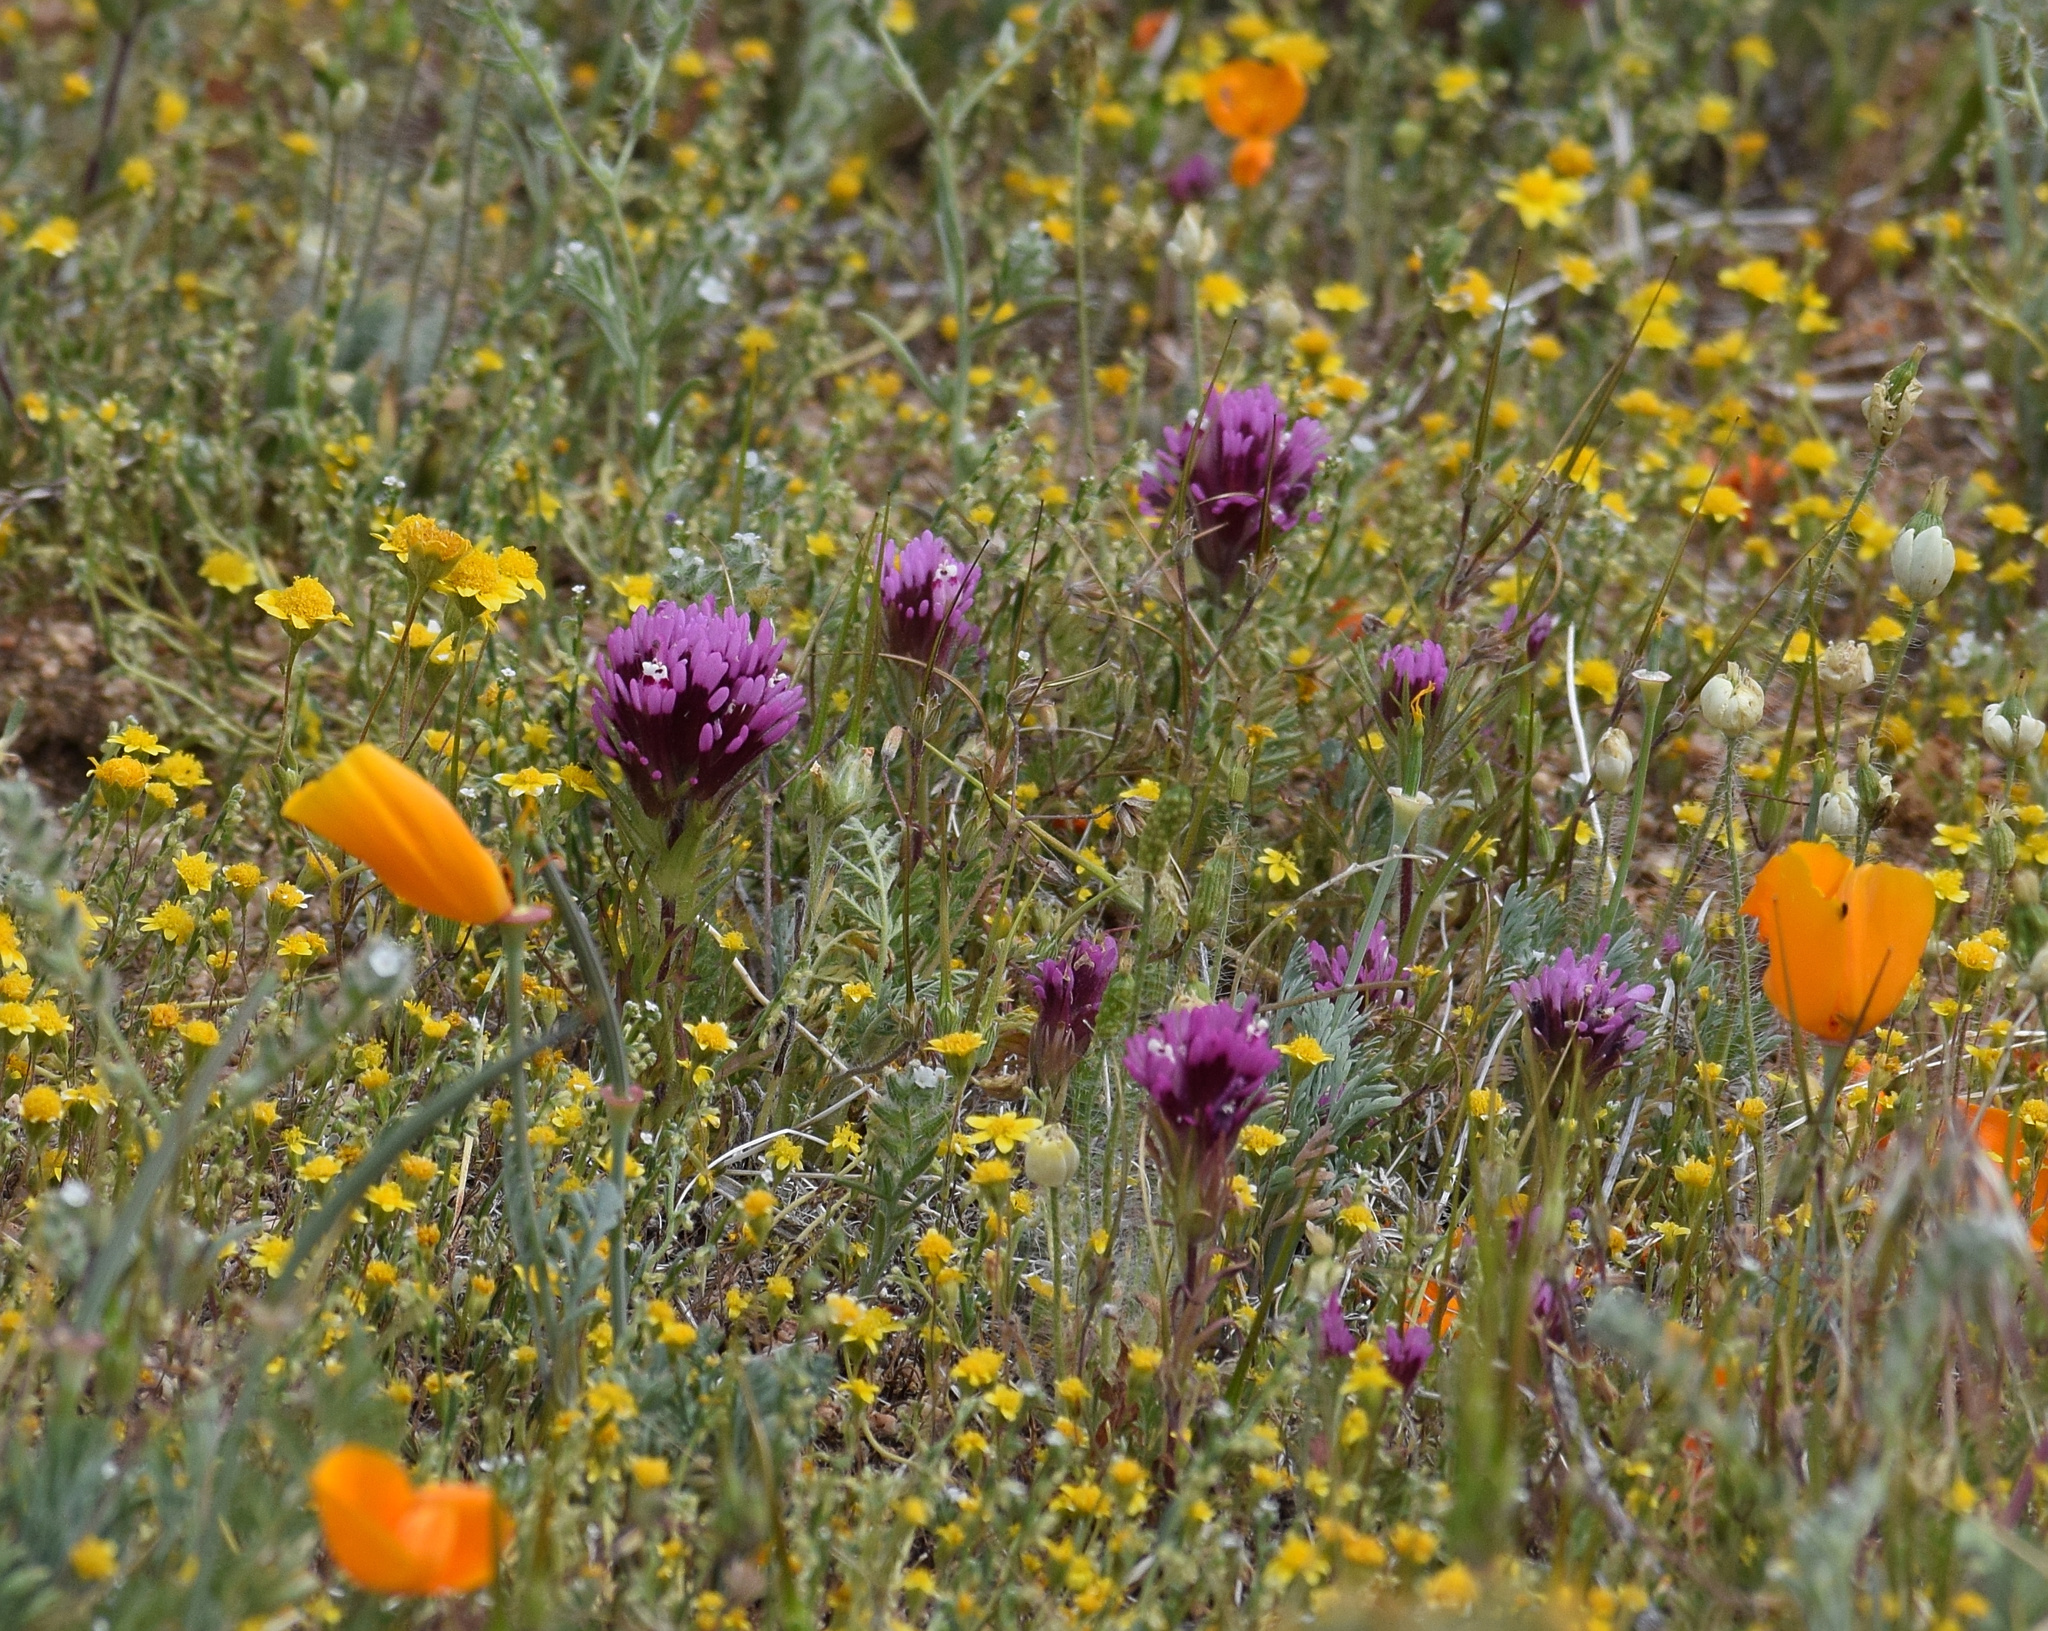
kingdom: Plantae
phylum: Tracheophyta
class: Magnoliopsida
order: Lamiales
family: Orobanchaceae
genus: Castilleja
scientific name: Castilleja exserta
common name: Purple owl-clover
